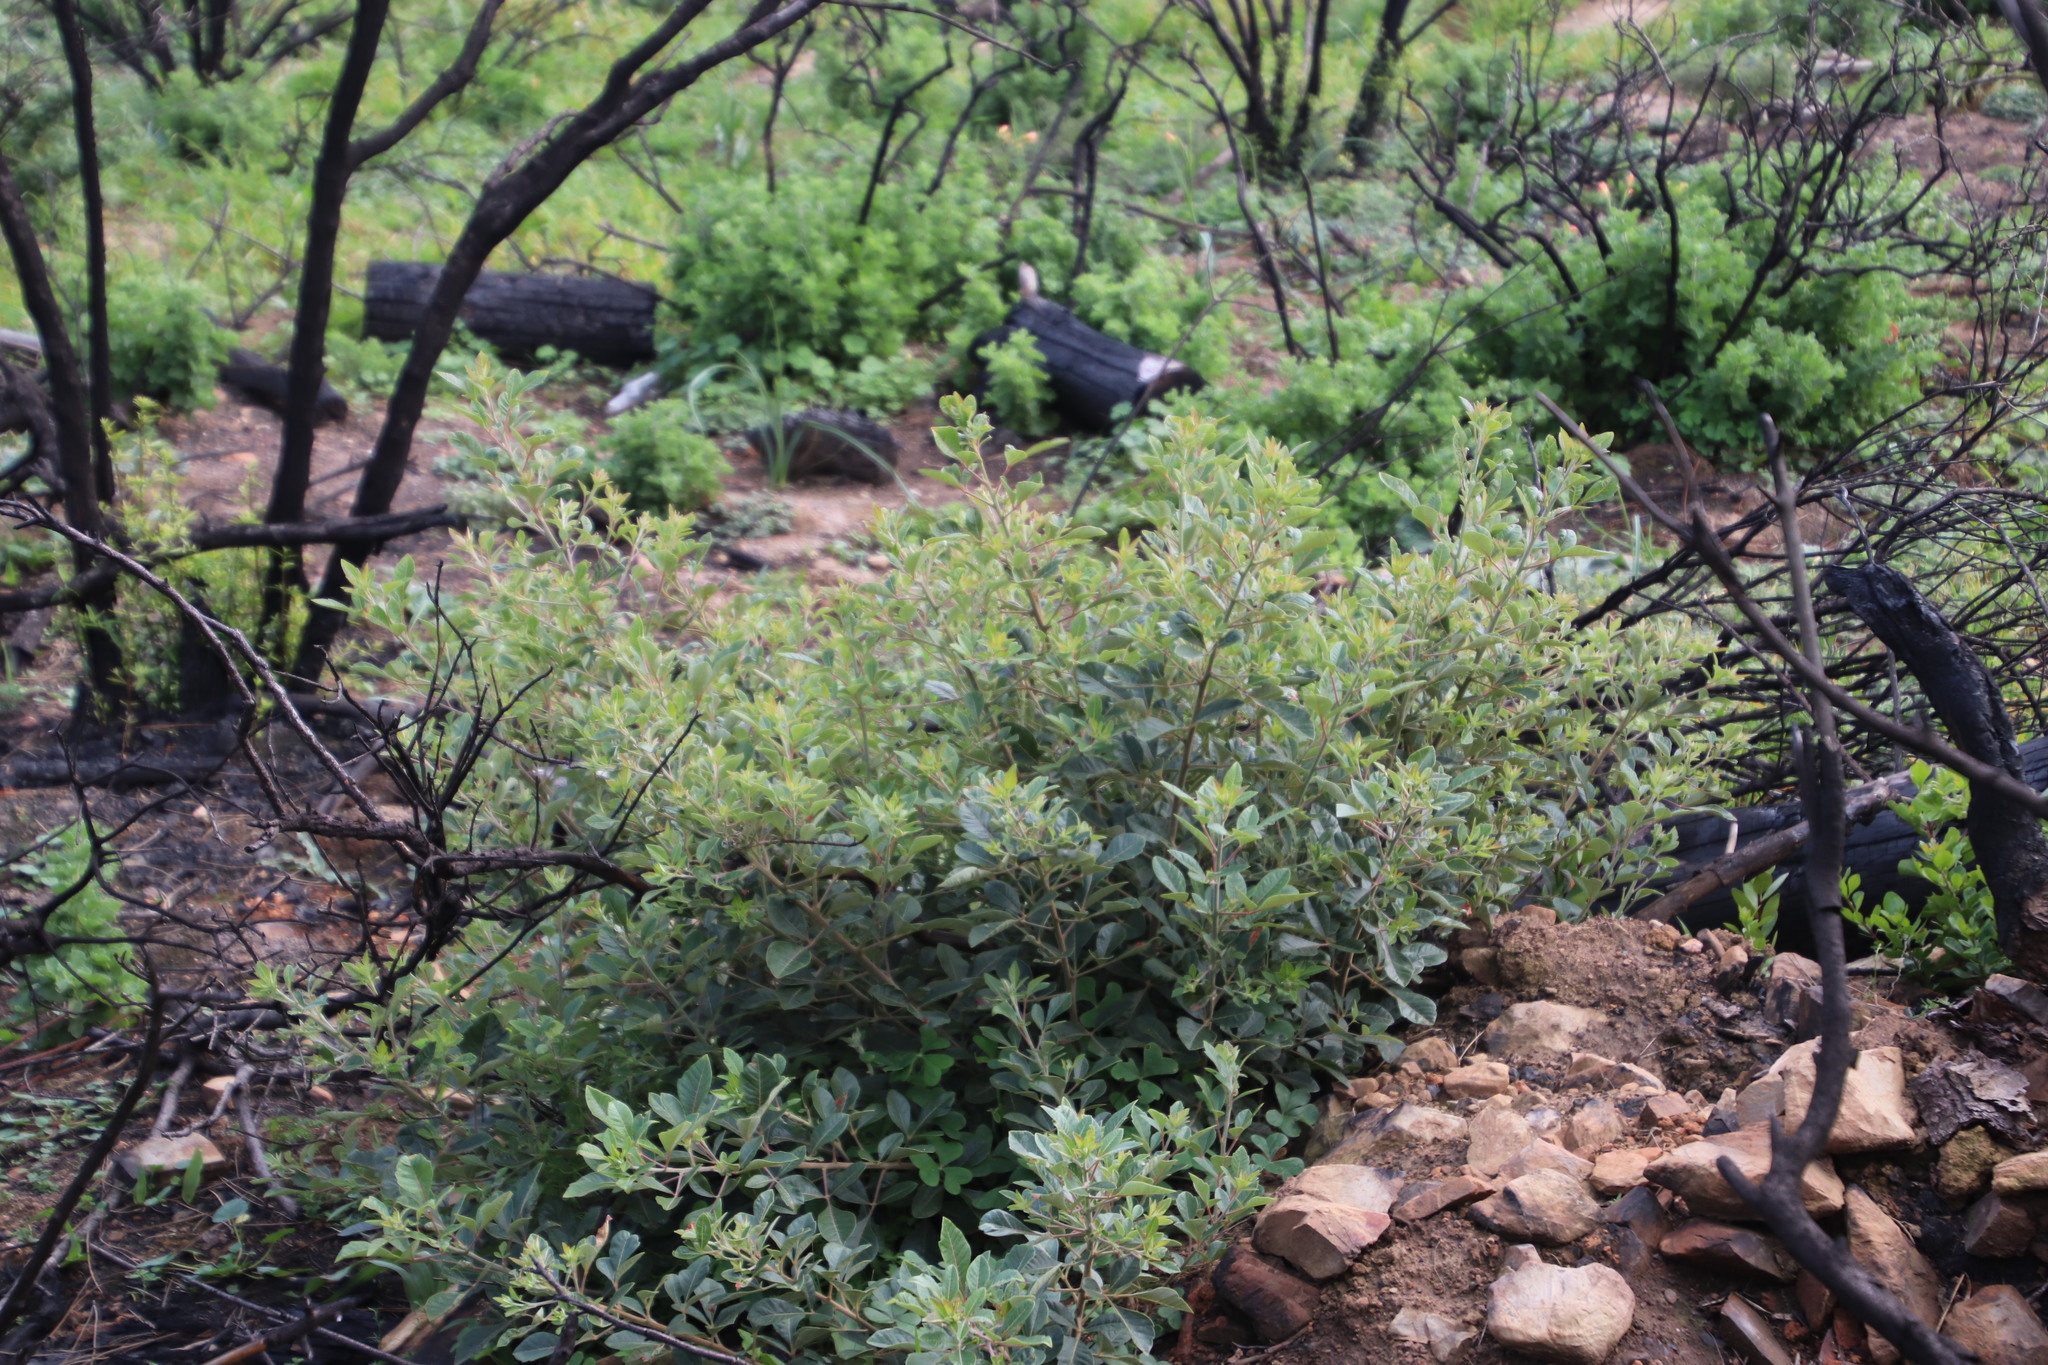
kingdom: Plantae
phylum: Tracheophyta
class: Magnoliopsida
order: Sapindales
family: Anacardiaceae
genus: Searsia
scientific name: Searsia tomentosa
